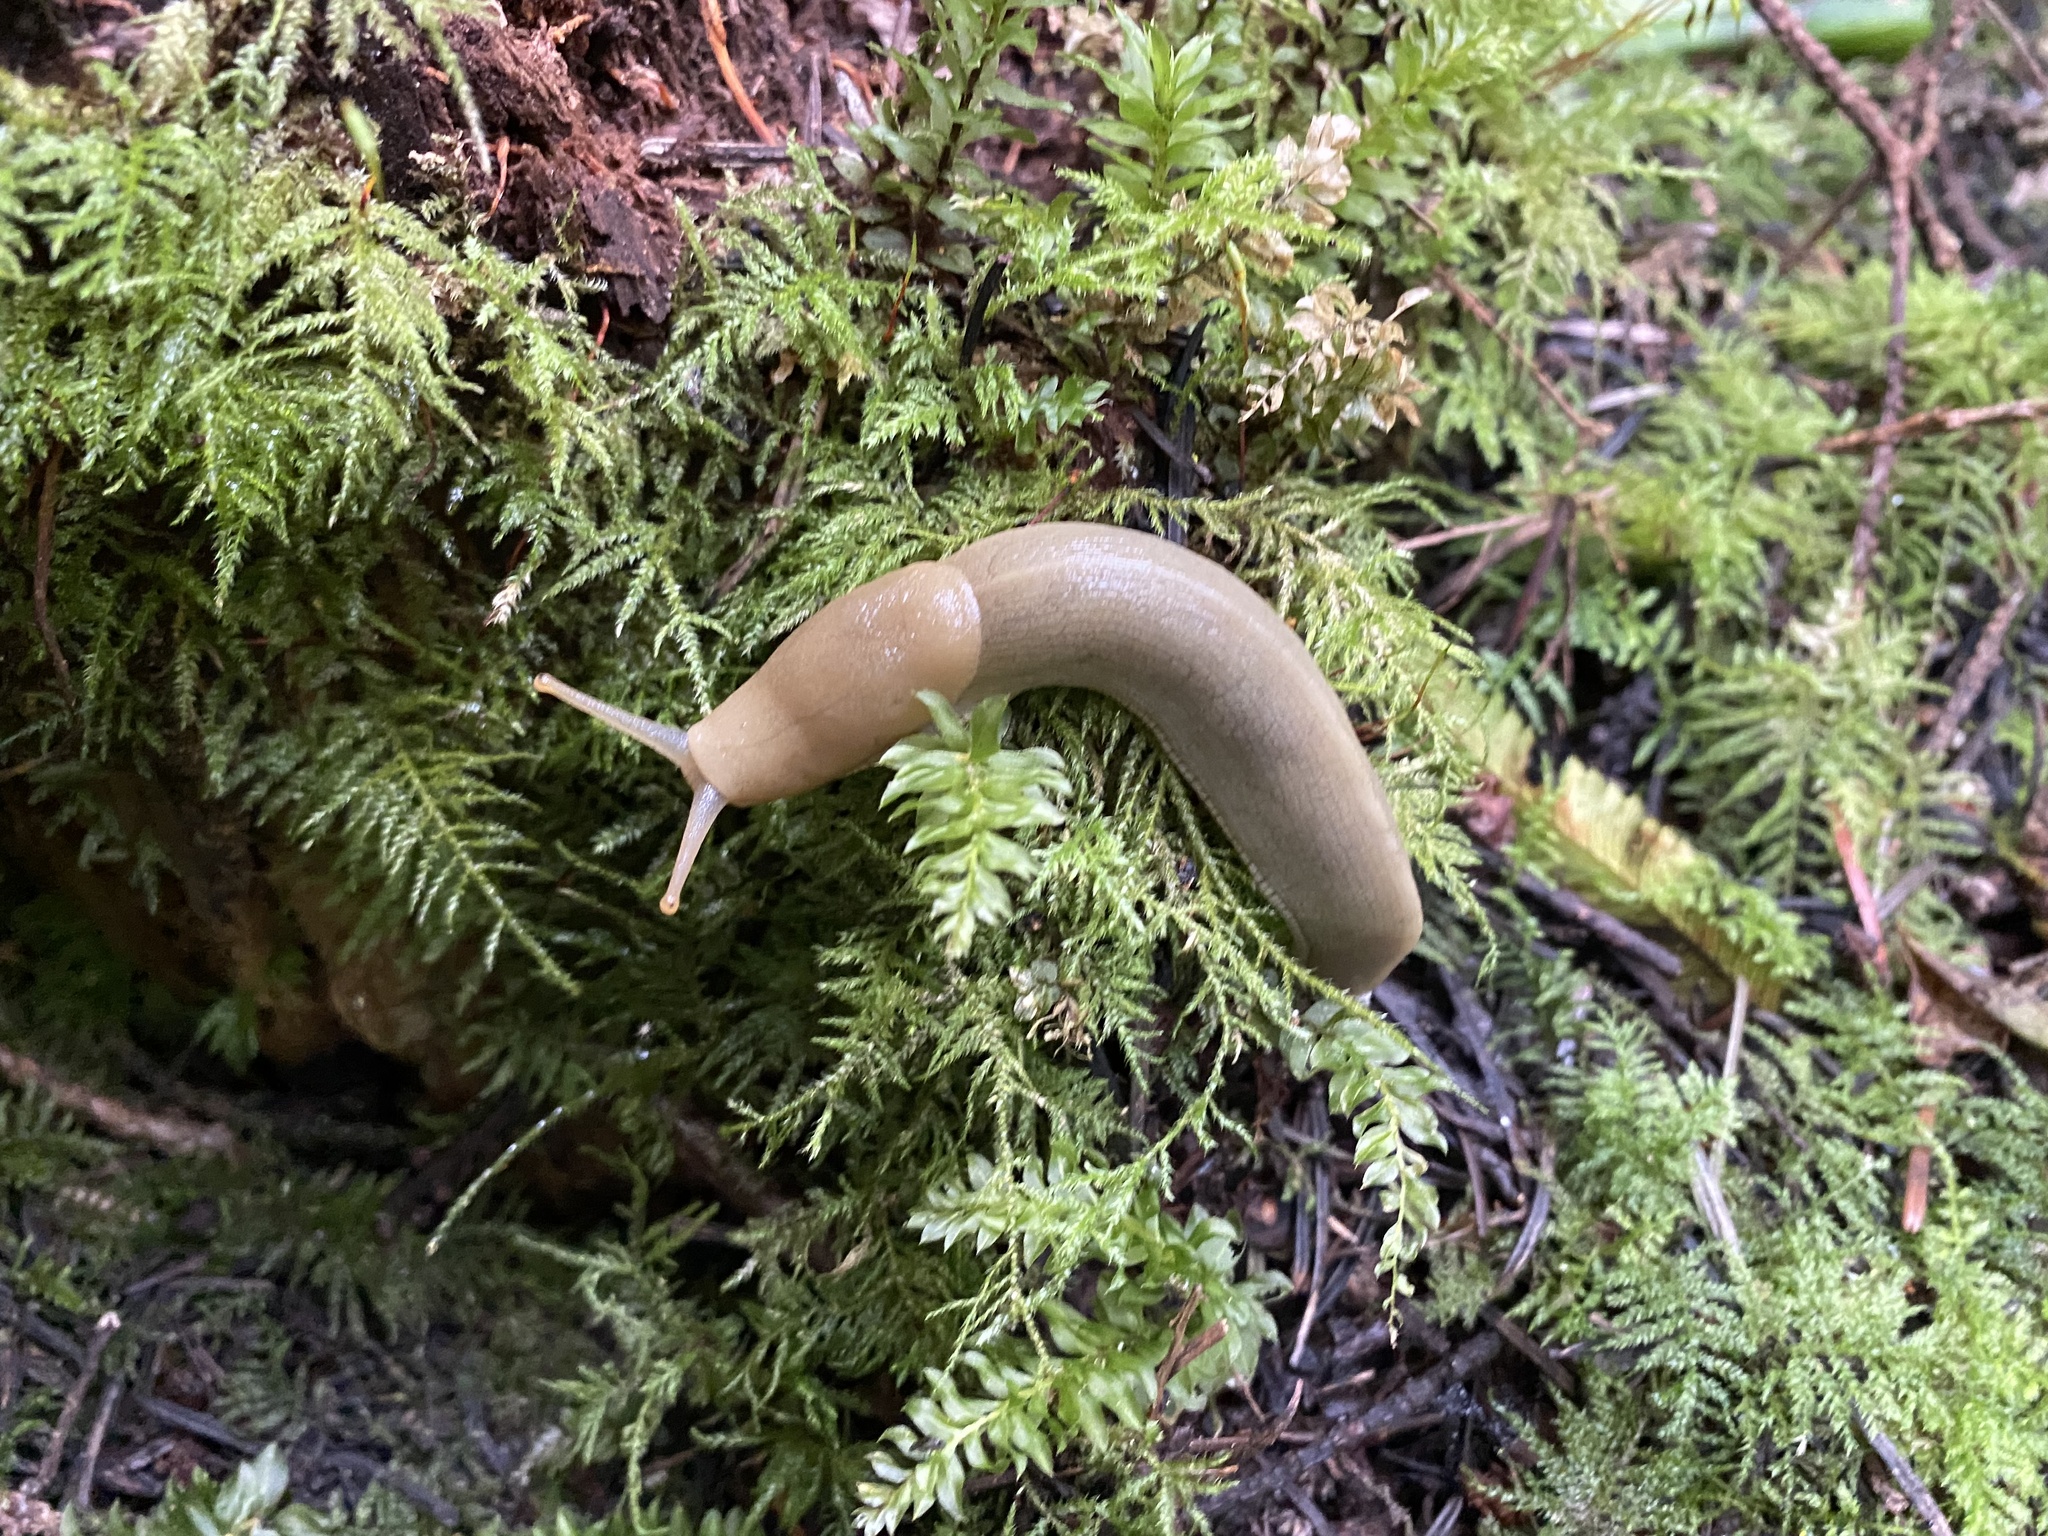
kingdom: Animalia
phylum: Mollusca
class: Gastropoda
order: Stylommatophora
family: Ariolimacidae
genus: Ariolimax
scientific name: Ariolimax columbianus
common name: Pacific banana slug
